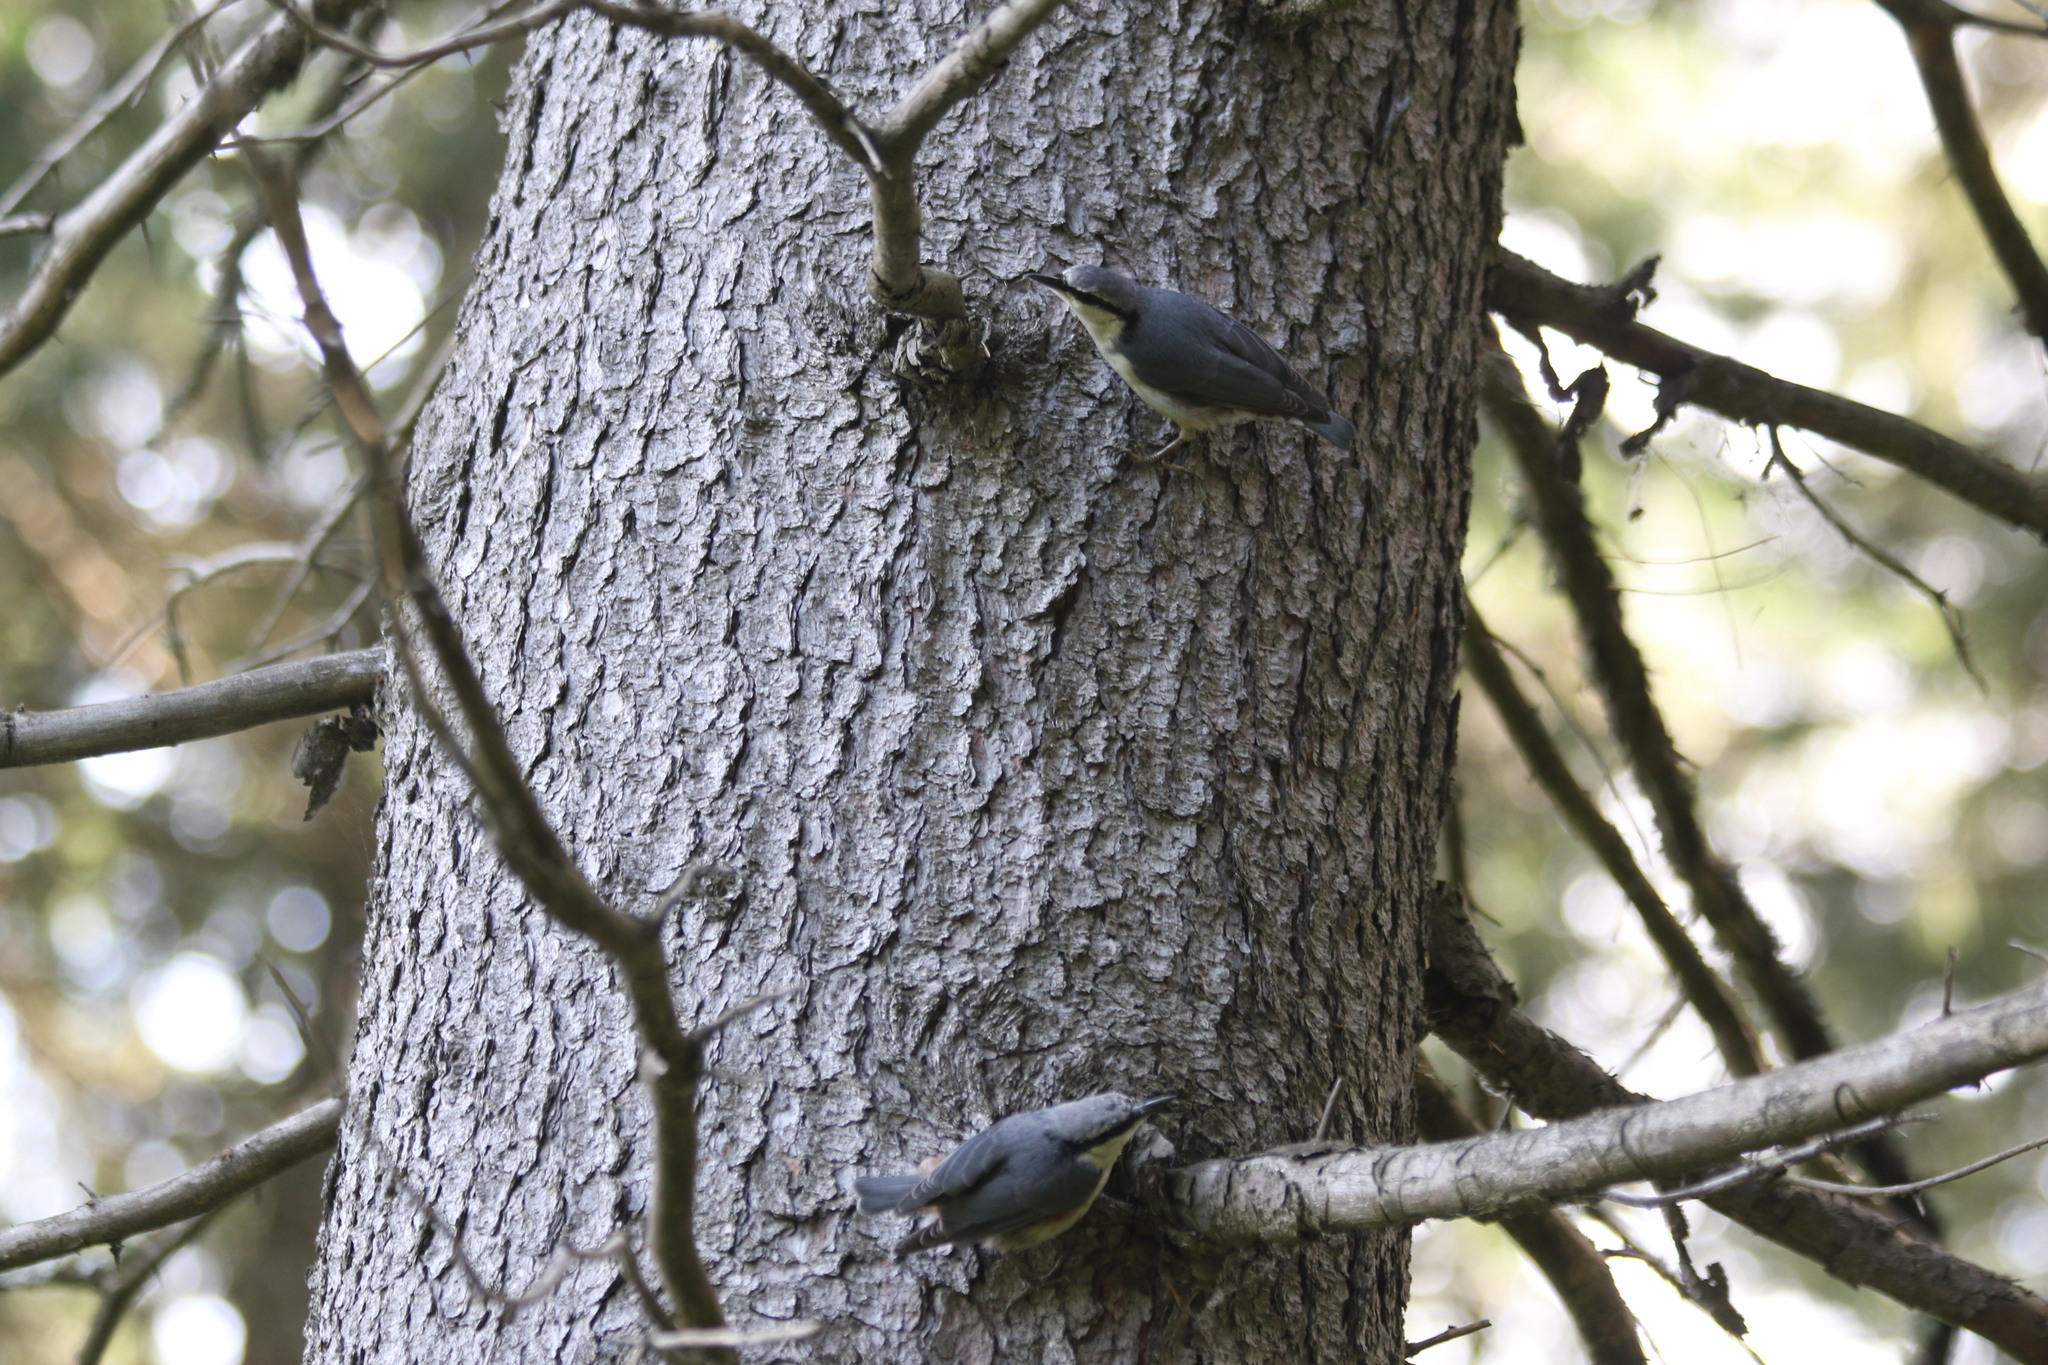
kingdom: Animalia
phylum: Chordata
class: Aves
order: Passeriformes
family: Sittidae
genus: Sitta
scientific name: Sitta europaea
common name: Eurasian nuthatch
